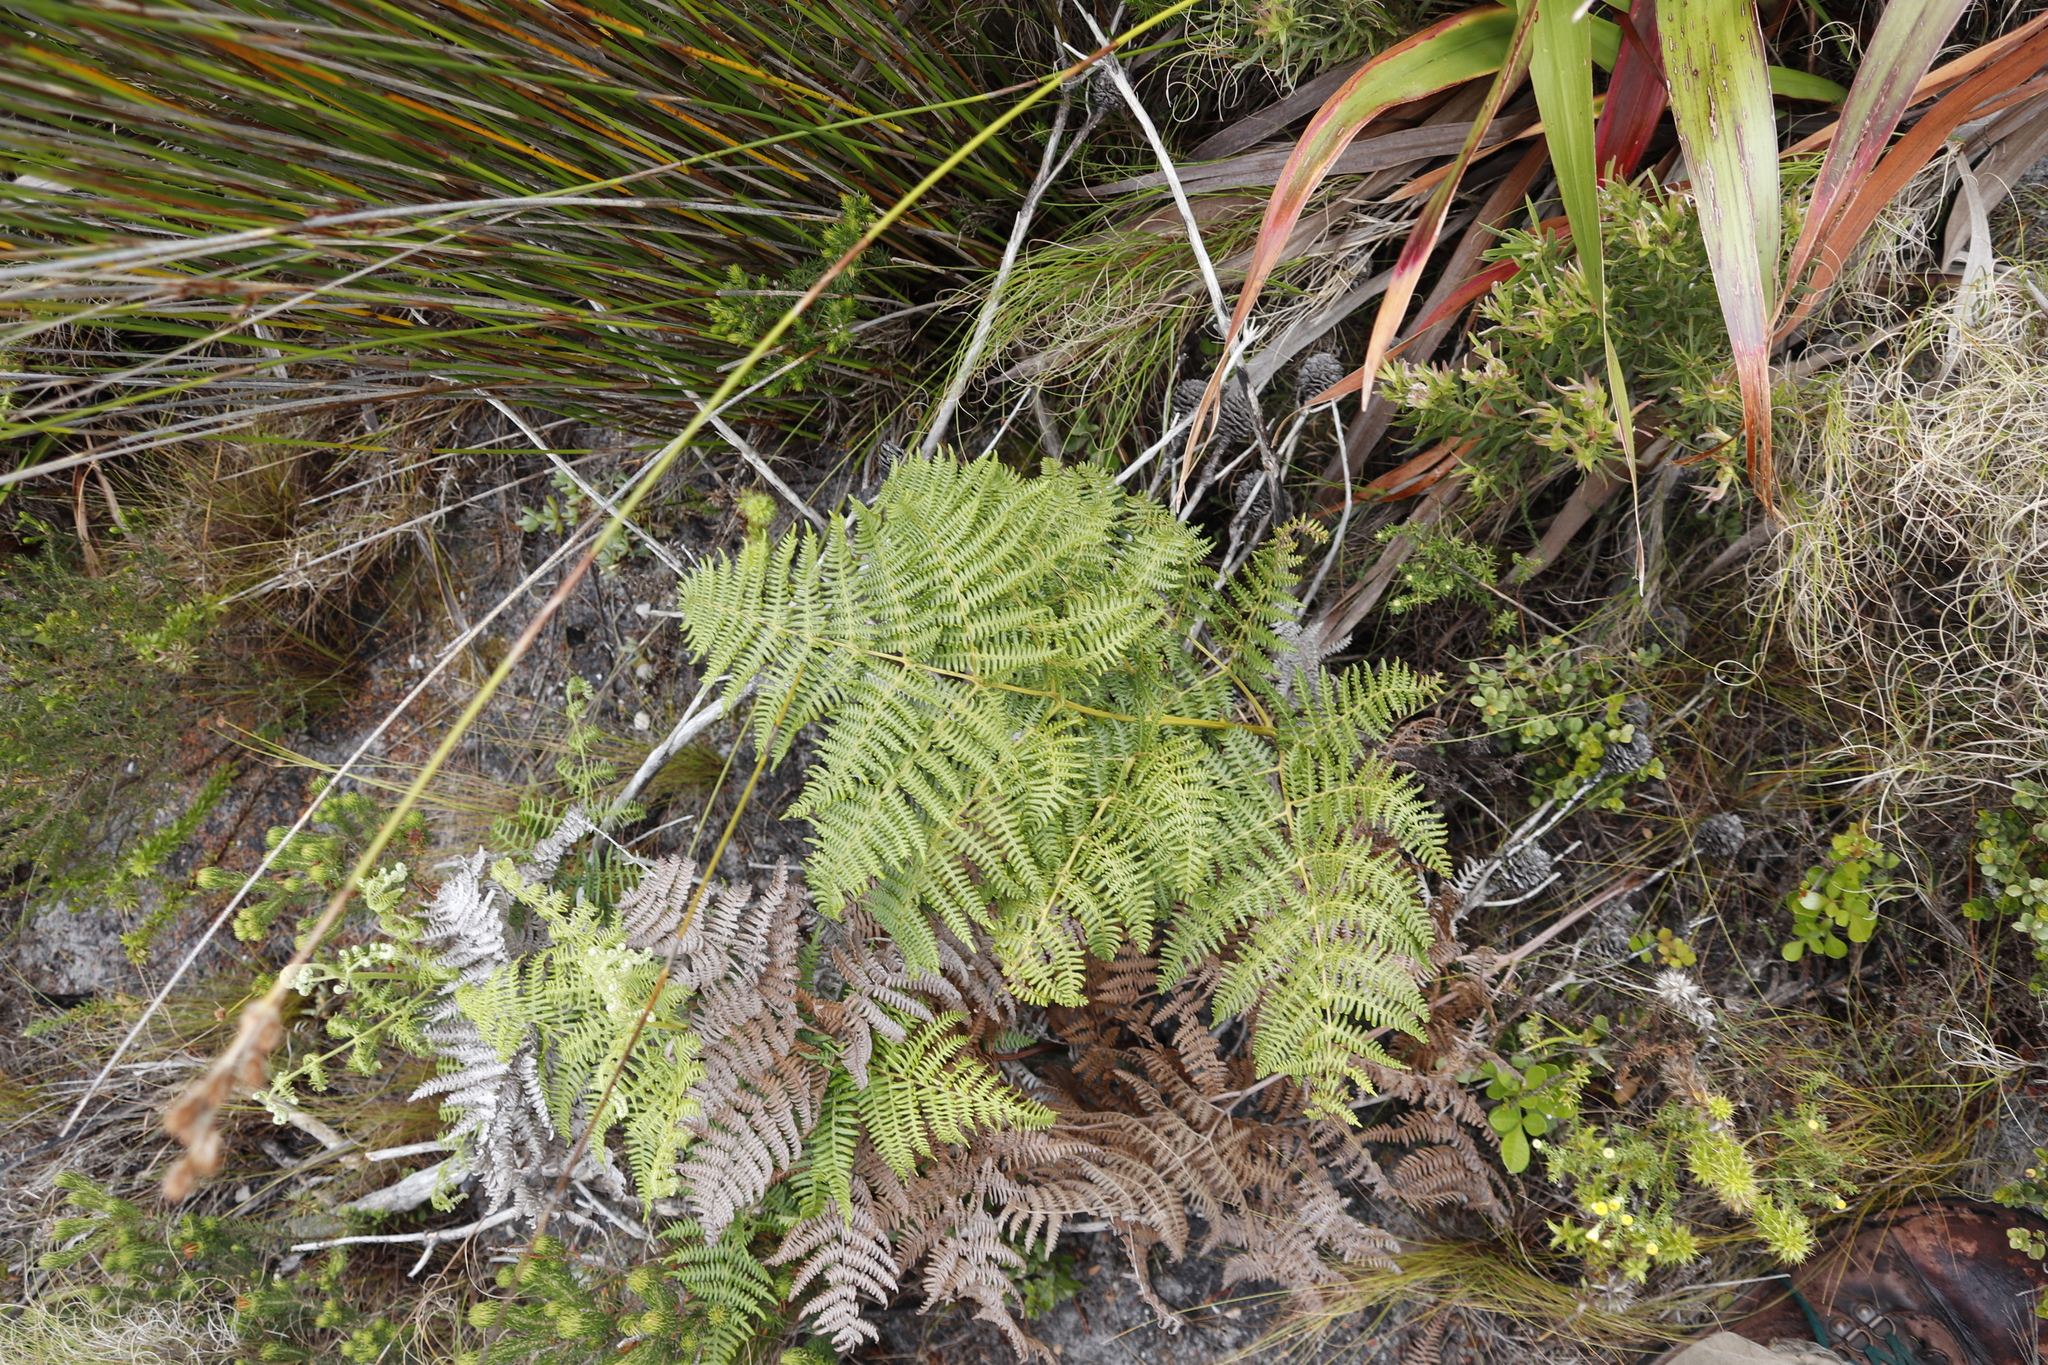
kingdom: Plantae
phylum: Tracheophyta
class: Polypodiopsida
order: Polypodiales
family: Dennstaedtiaceae
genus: Pteridium
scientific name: Pteridium aquilinum
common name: Bracken
